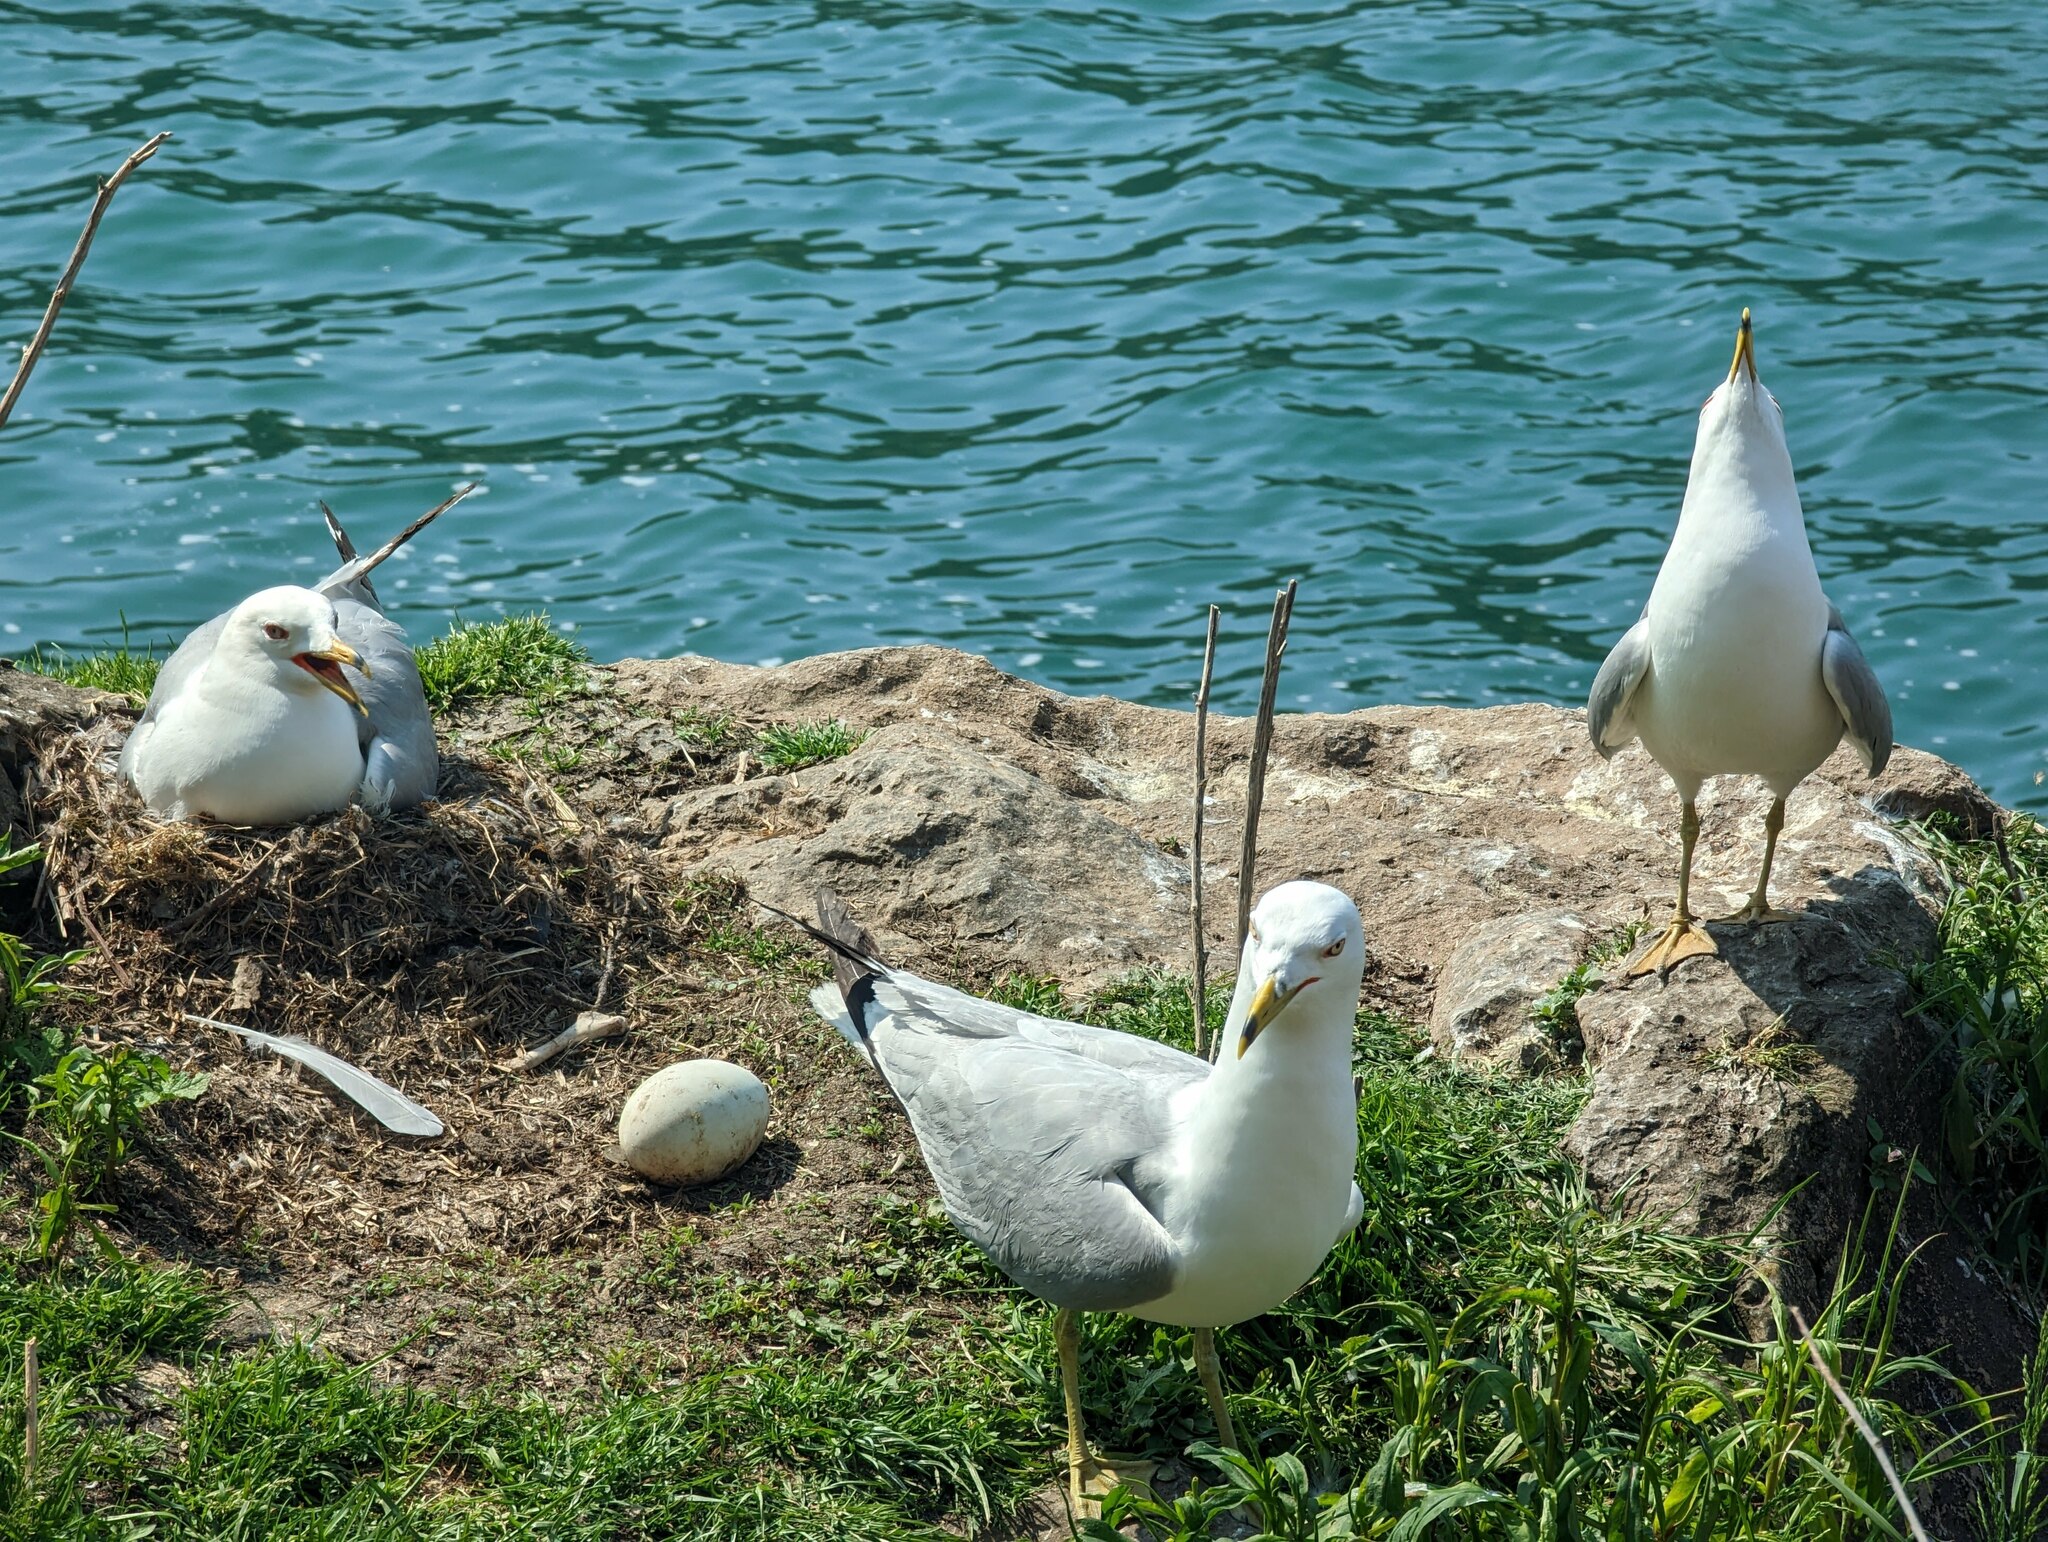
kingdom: Animalia
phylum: Chordata
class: Aves
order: Charadriiformes
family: Laridae
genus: Larus
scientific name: Larus delawarensis
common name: Ring-billed gull
